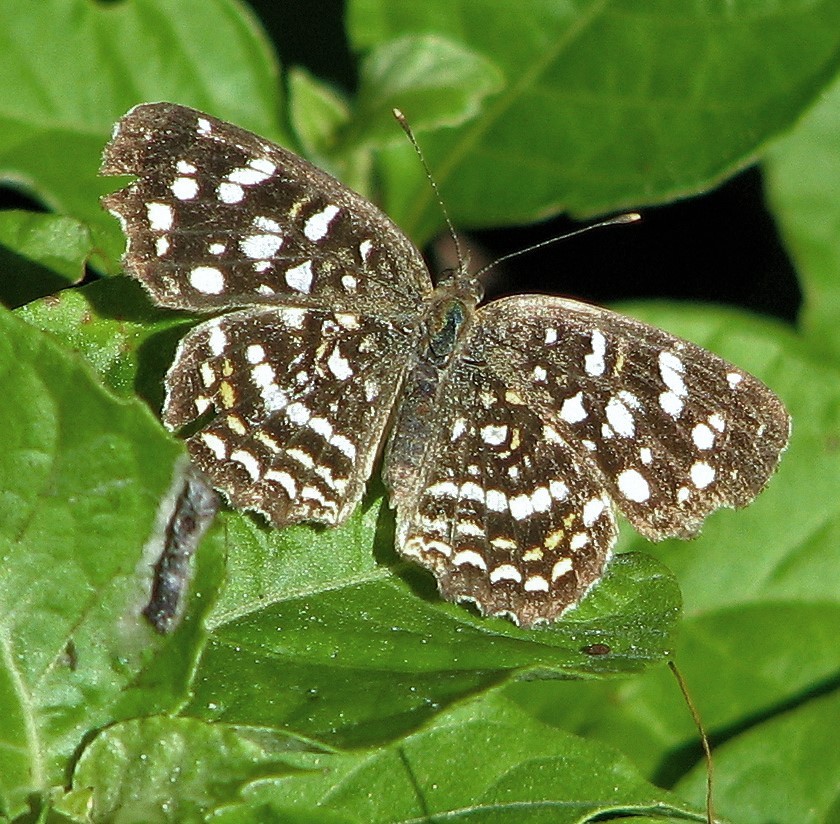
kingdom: Animalia
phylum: Arthropoda
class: Insecta
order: Lepidoptera
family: Nymphalidae
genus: Anthanassa
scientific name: Anthanassa hermas
